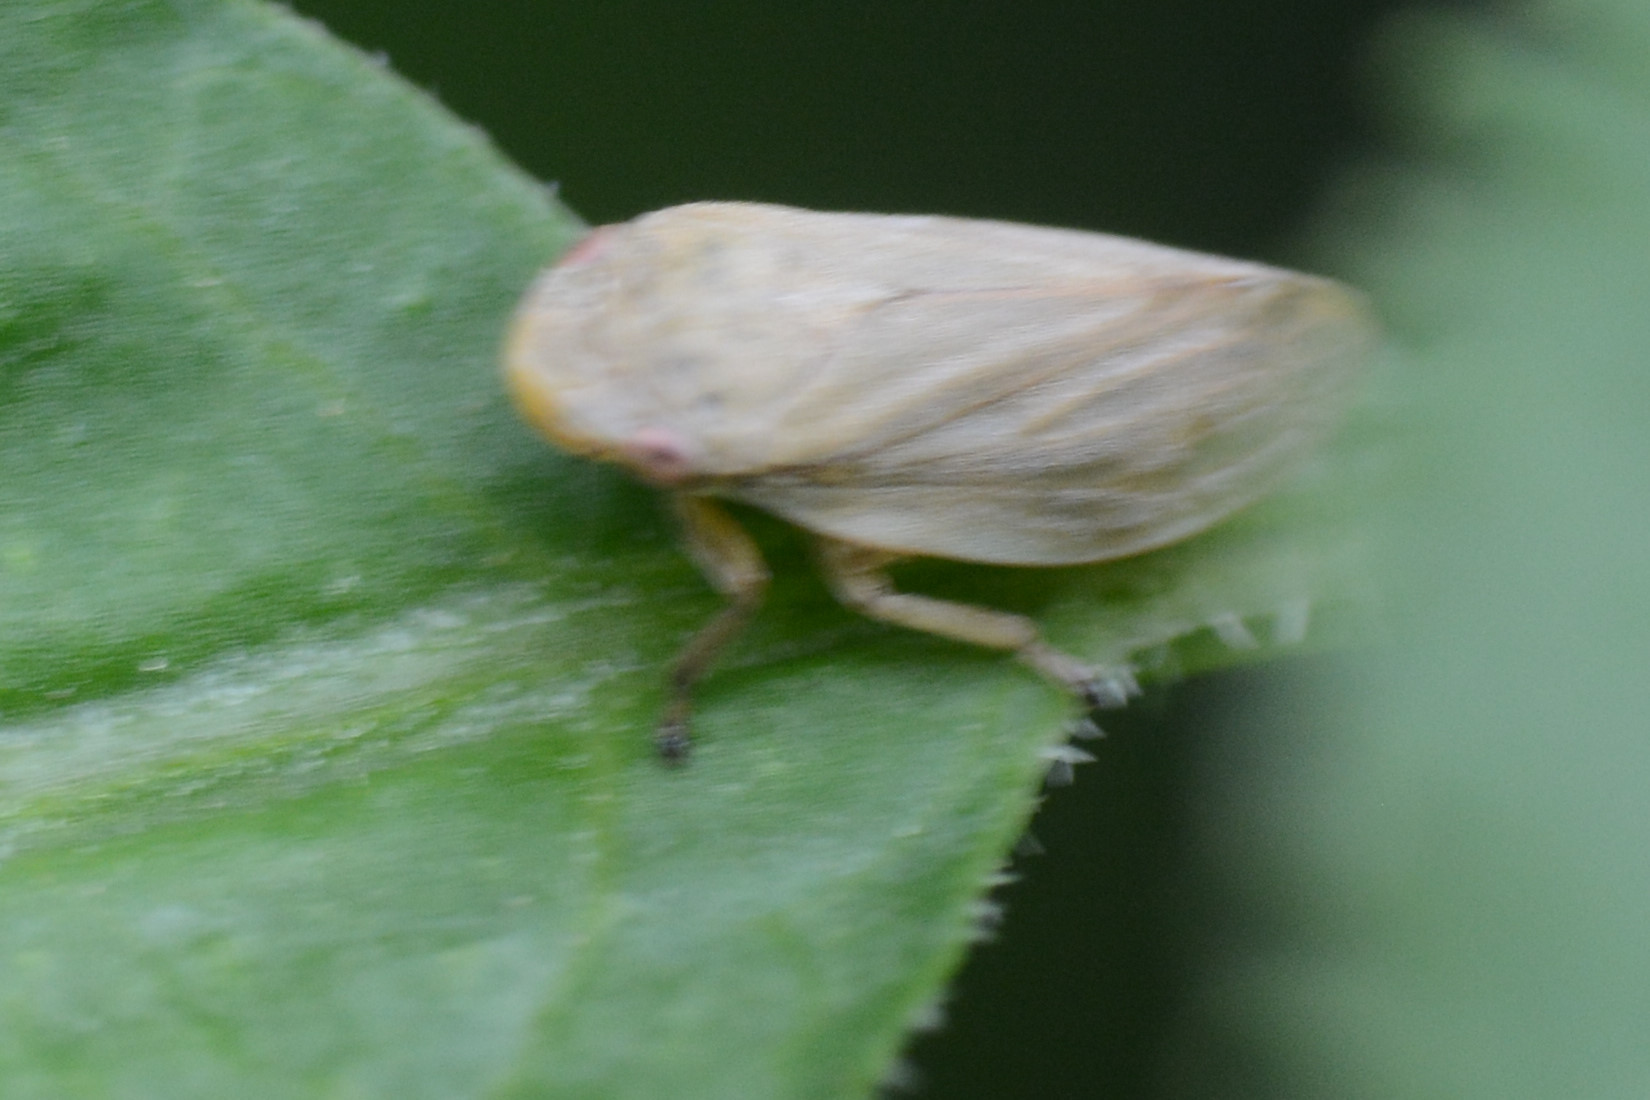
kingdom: Animalia
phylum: Arthropoda
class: Insecta
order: Hemiptera
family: Aphrophoridae
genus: Philaenus
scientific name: Philaenus spumarius
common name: Meadow spittlebug
